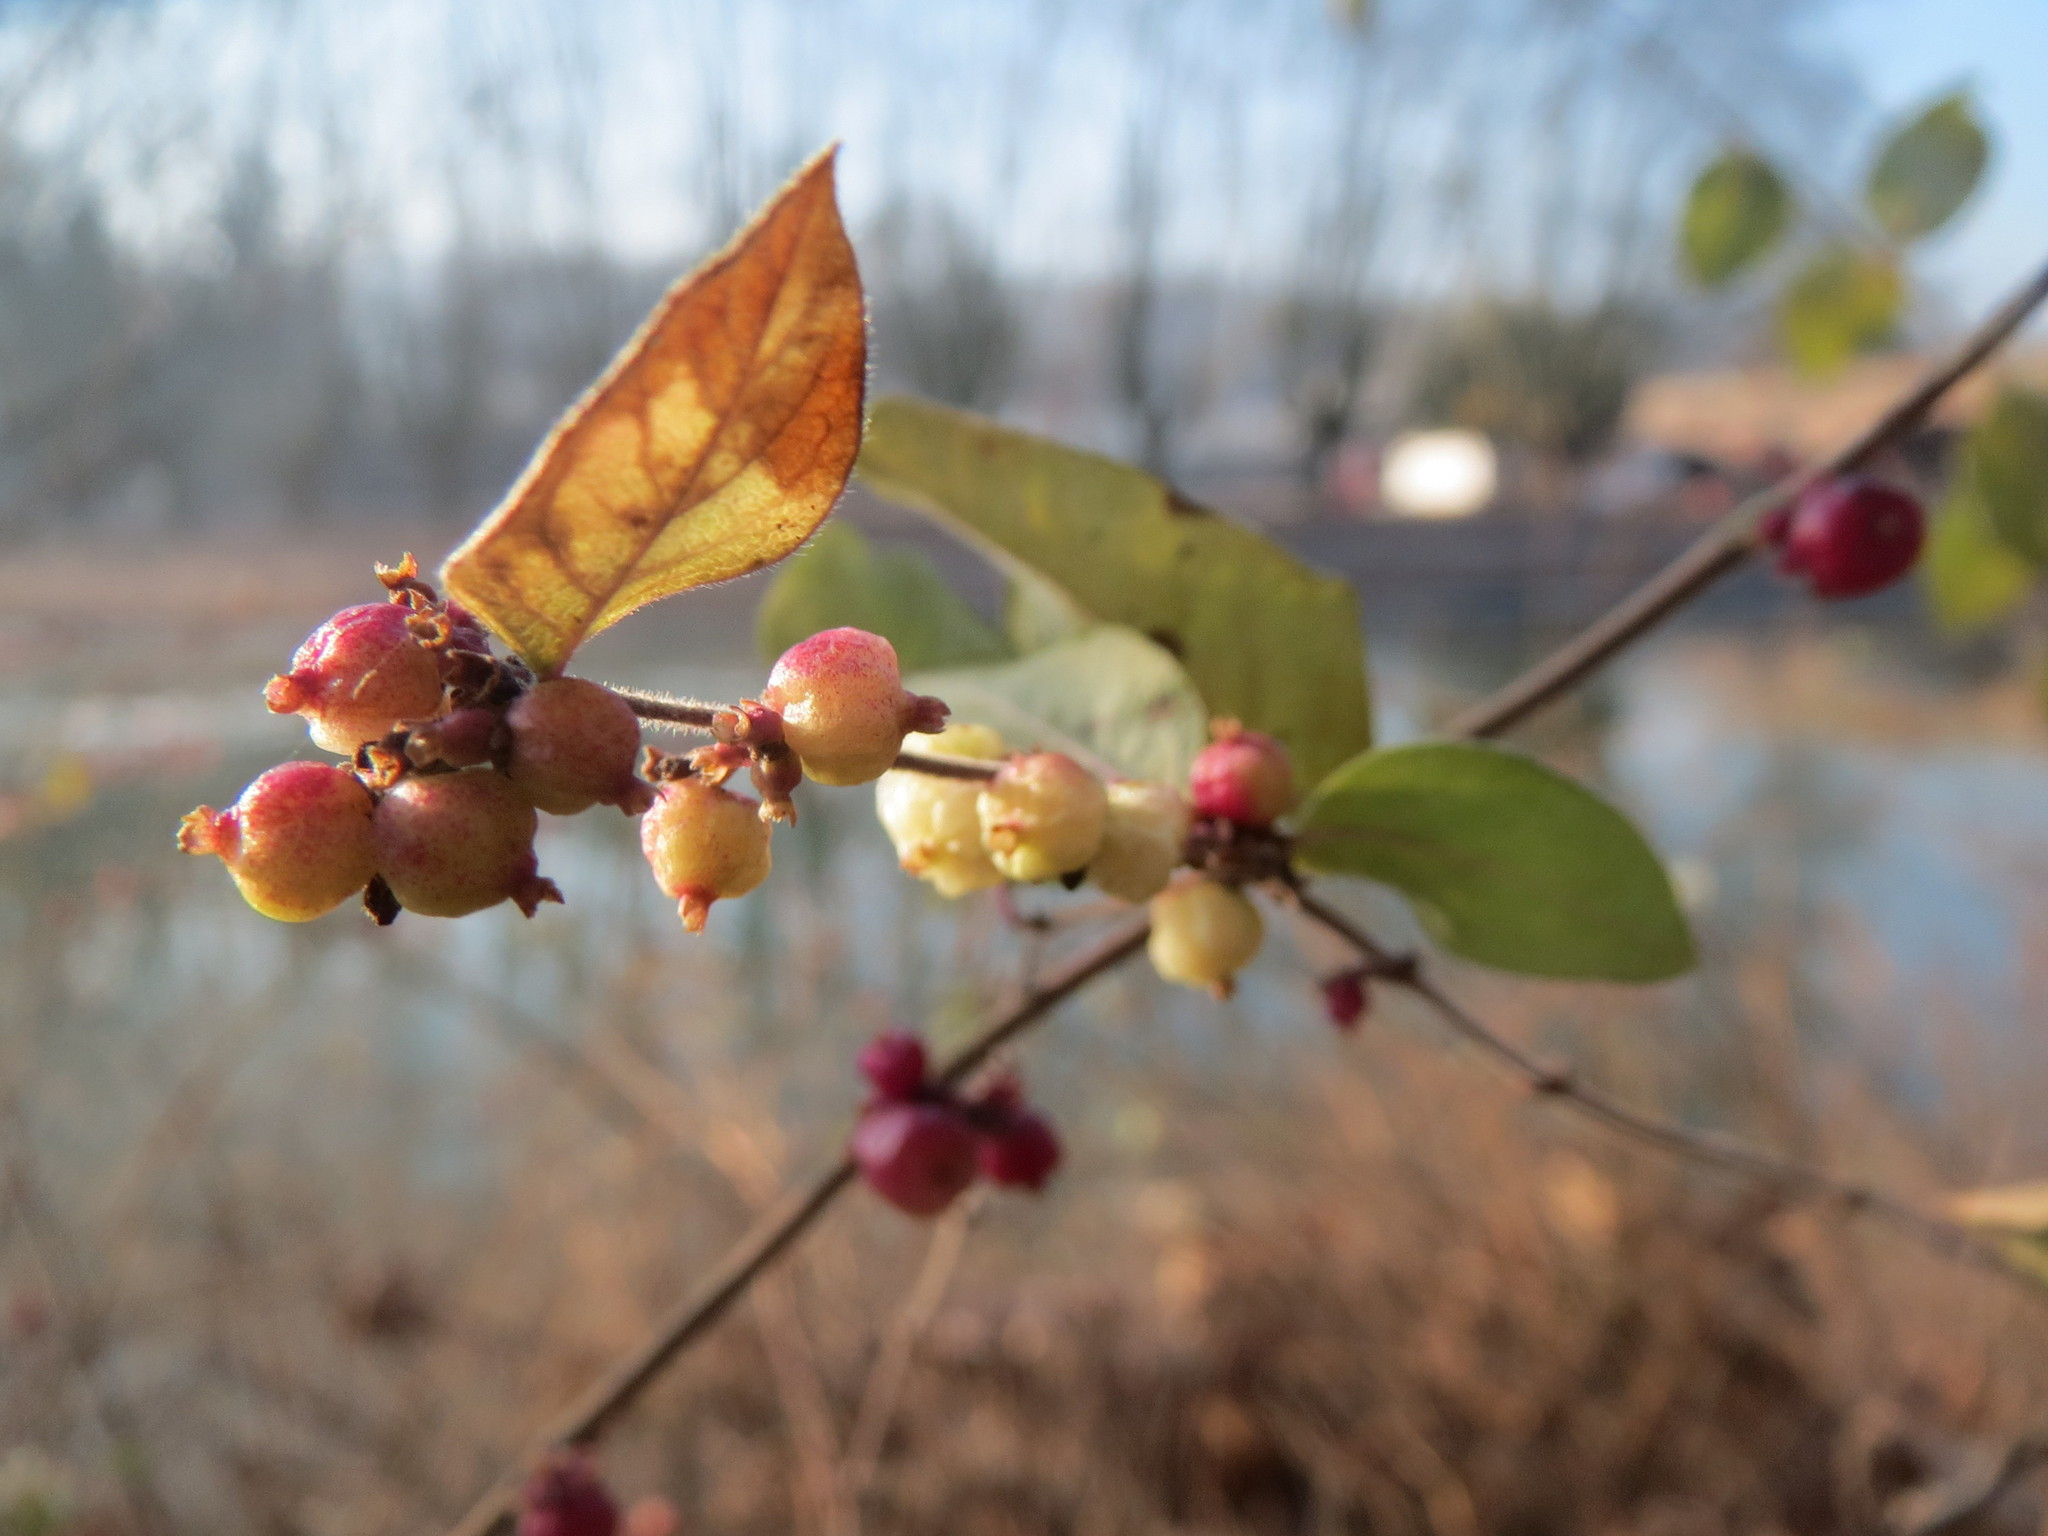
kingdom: Plantae
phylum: Tracheophyta
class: Magnoliopsida
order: Dipsacales
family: Caprifoliaceae
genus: Symphoricarpos
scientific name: Symphoricarpos albus
